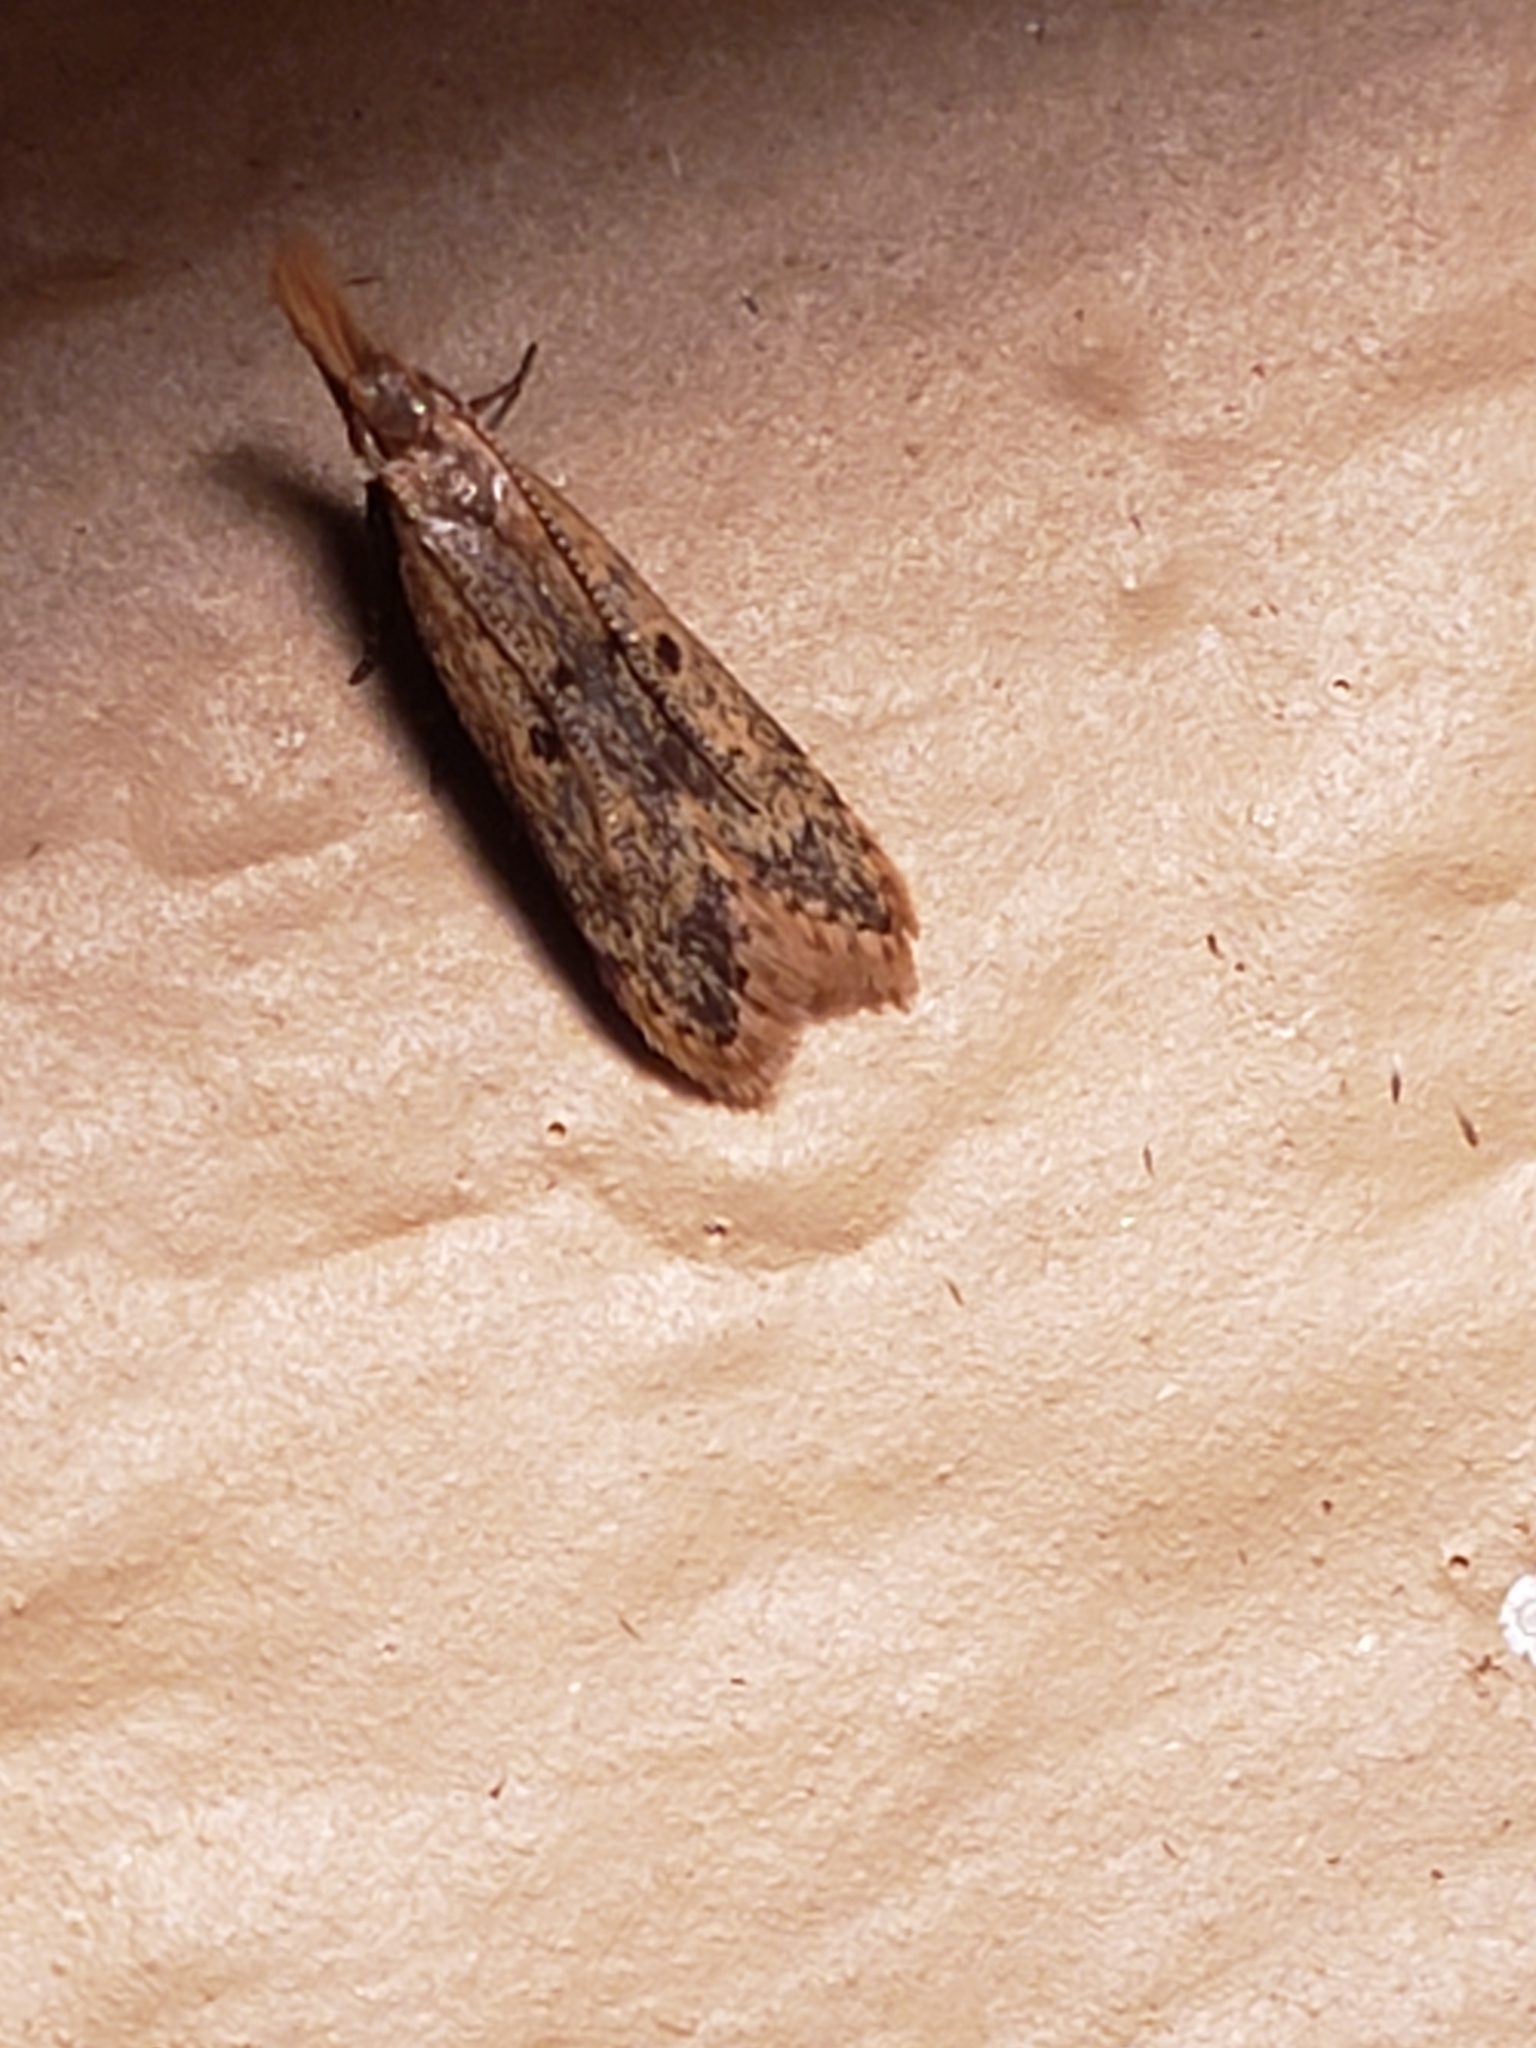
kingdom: Animalia
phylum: Arthropoda
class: Insecta
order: Lepidoptera
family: Gelechiidae
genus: Dichomeris
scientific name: Dichomeris punctipennella
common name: Many-spotted dichomeris moth
